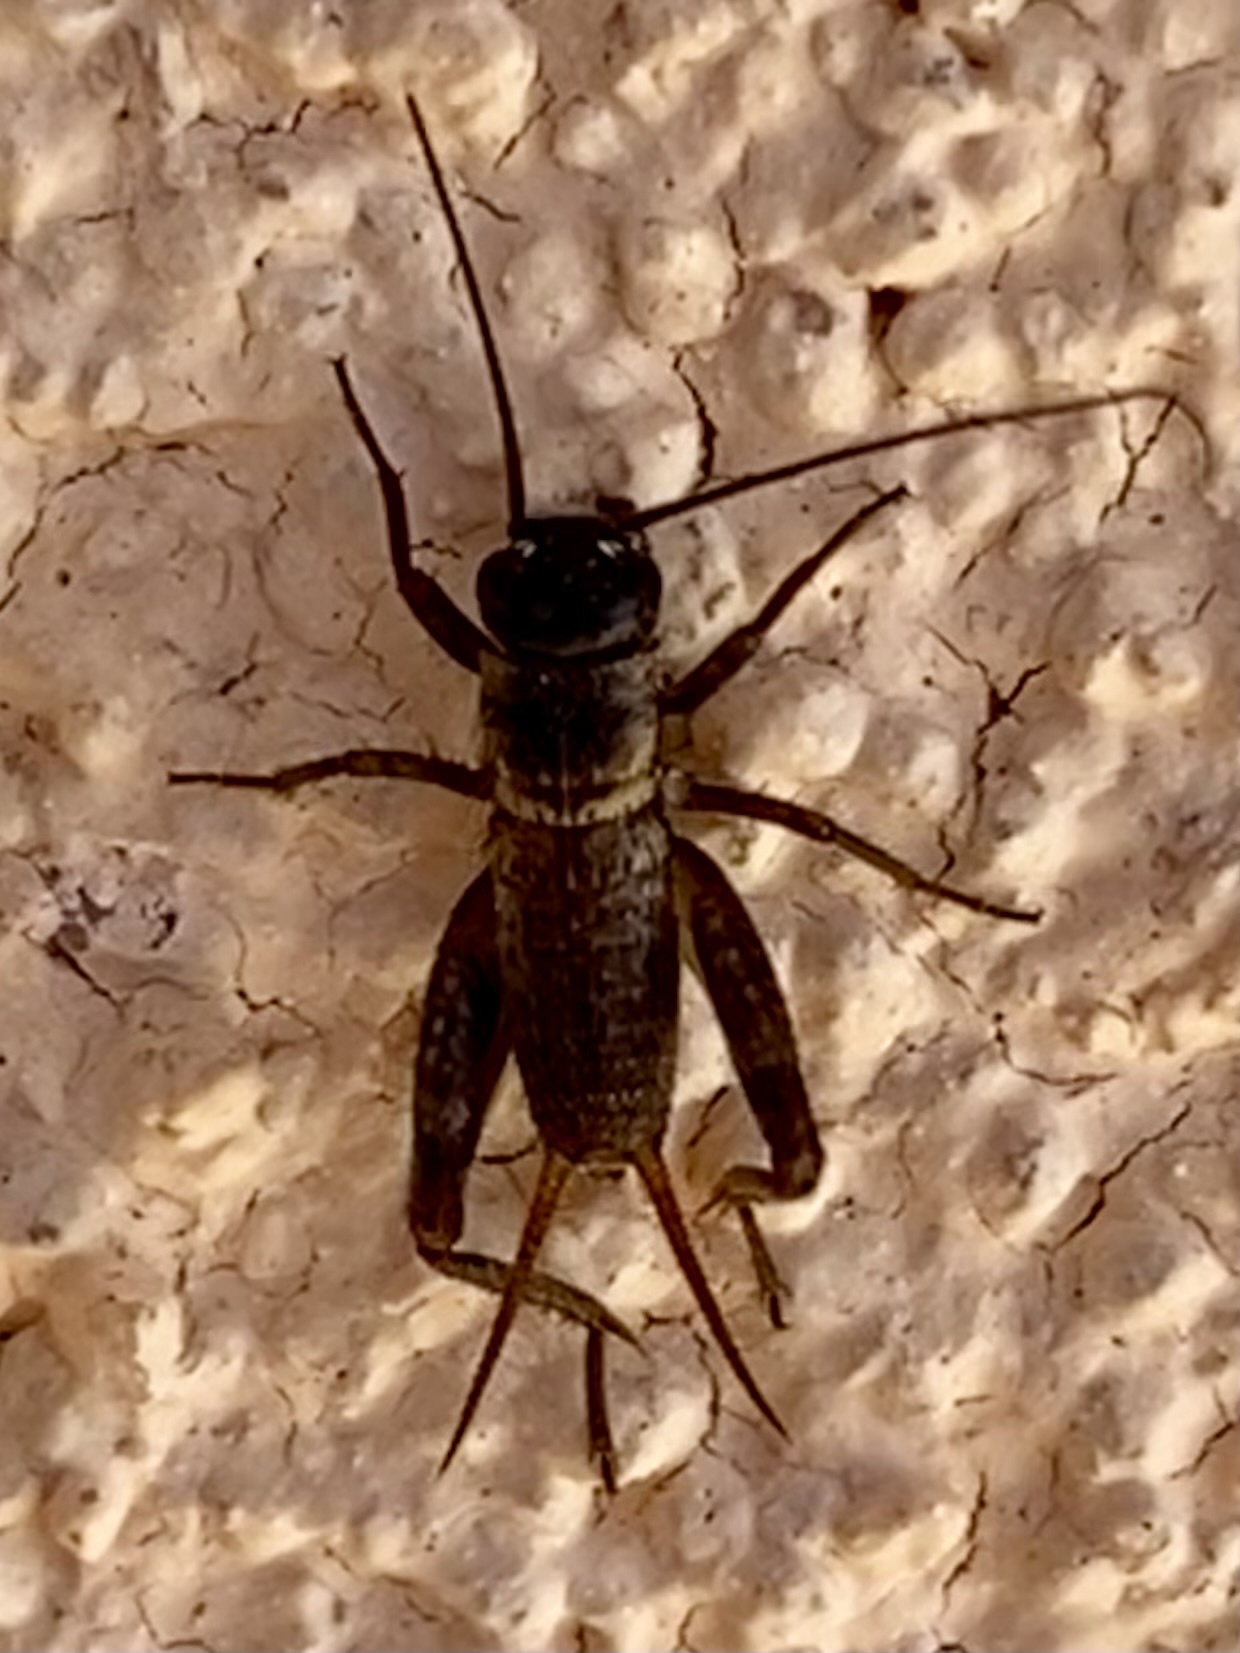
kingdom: Animalia
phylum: Arthropoda
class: Insecta
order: Orthoptera
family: Gryllidae
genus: Gryllus
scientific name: Gryllus
